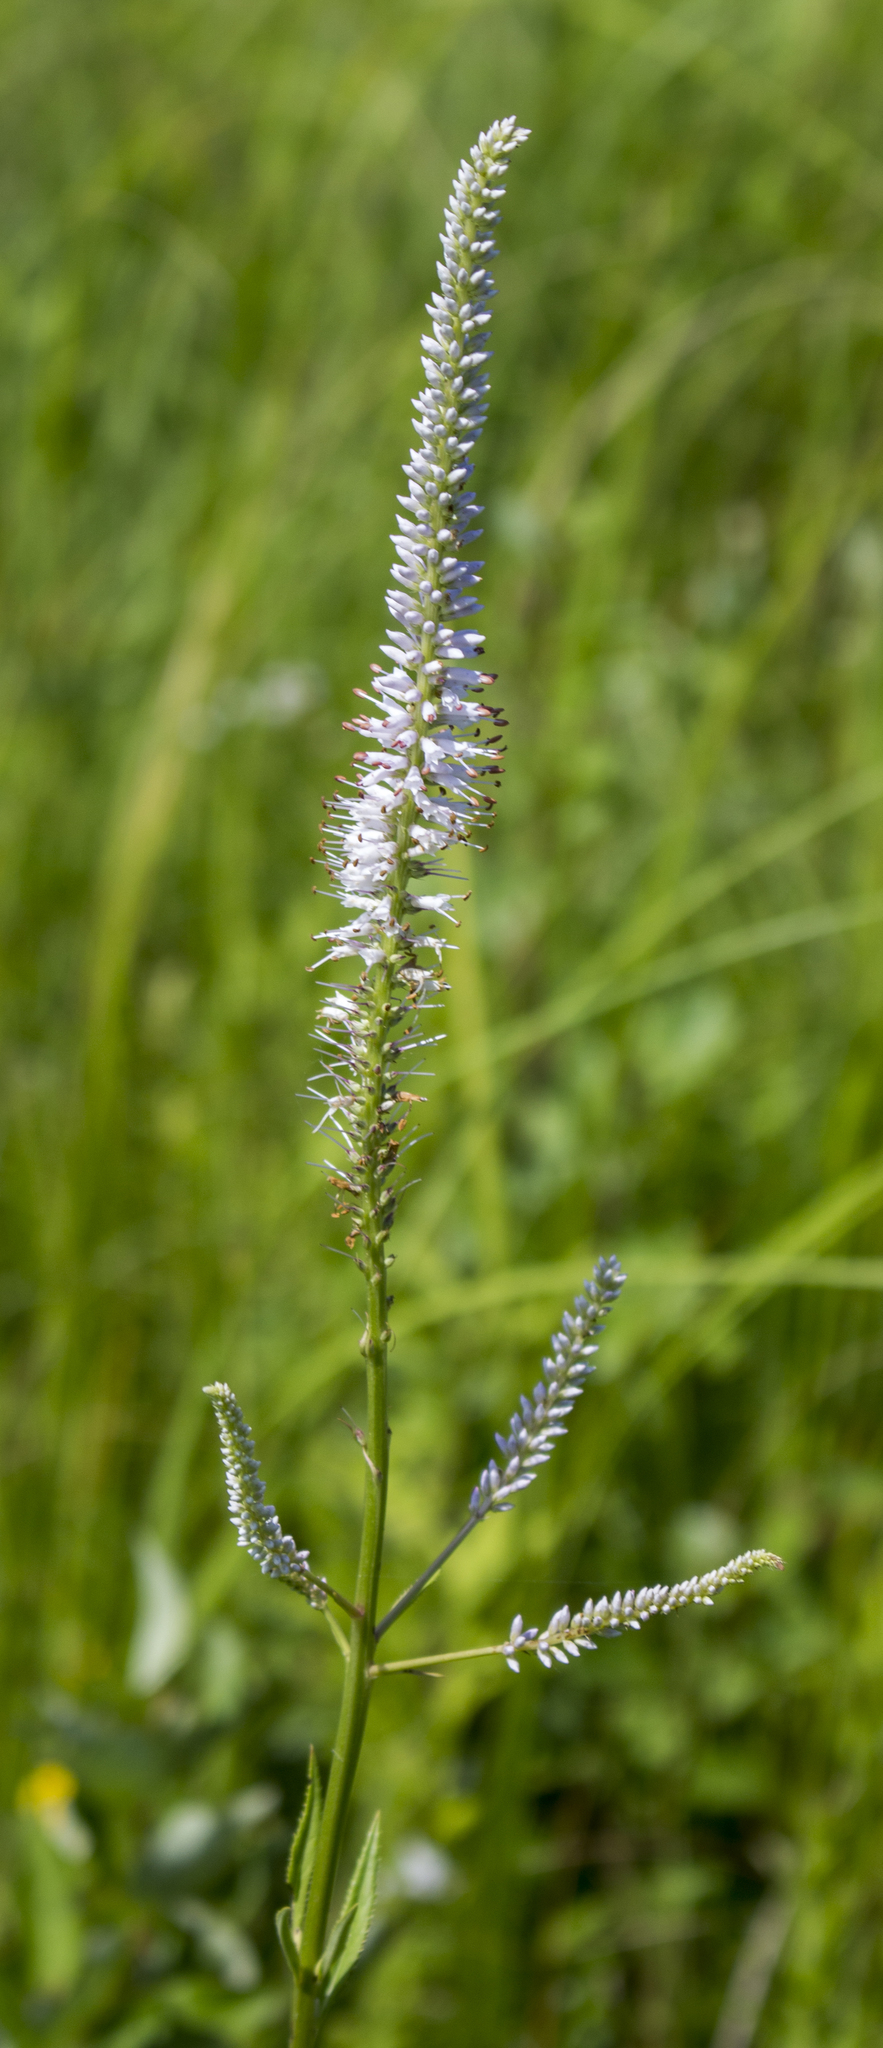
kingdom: Plantae
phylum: Tracheophyta
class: Magnoliopsida
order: Lamiales
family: Plantaginaceae
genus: Veronicastrum
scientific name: Veronicastrum virginicum
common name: Blackroot
